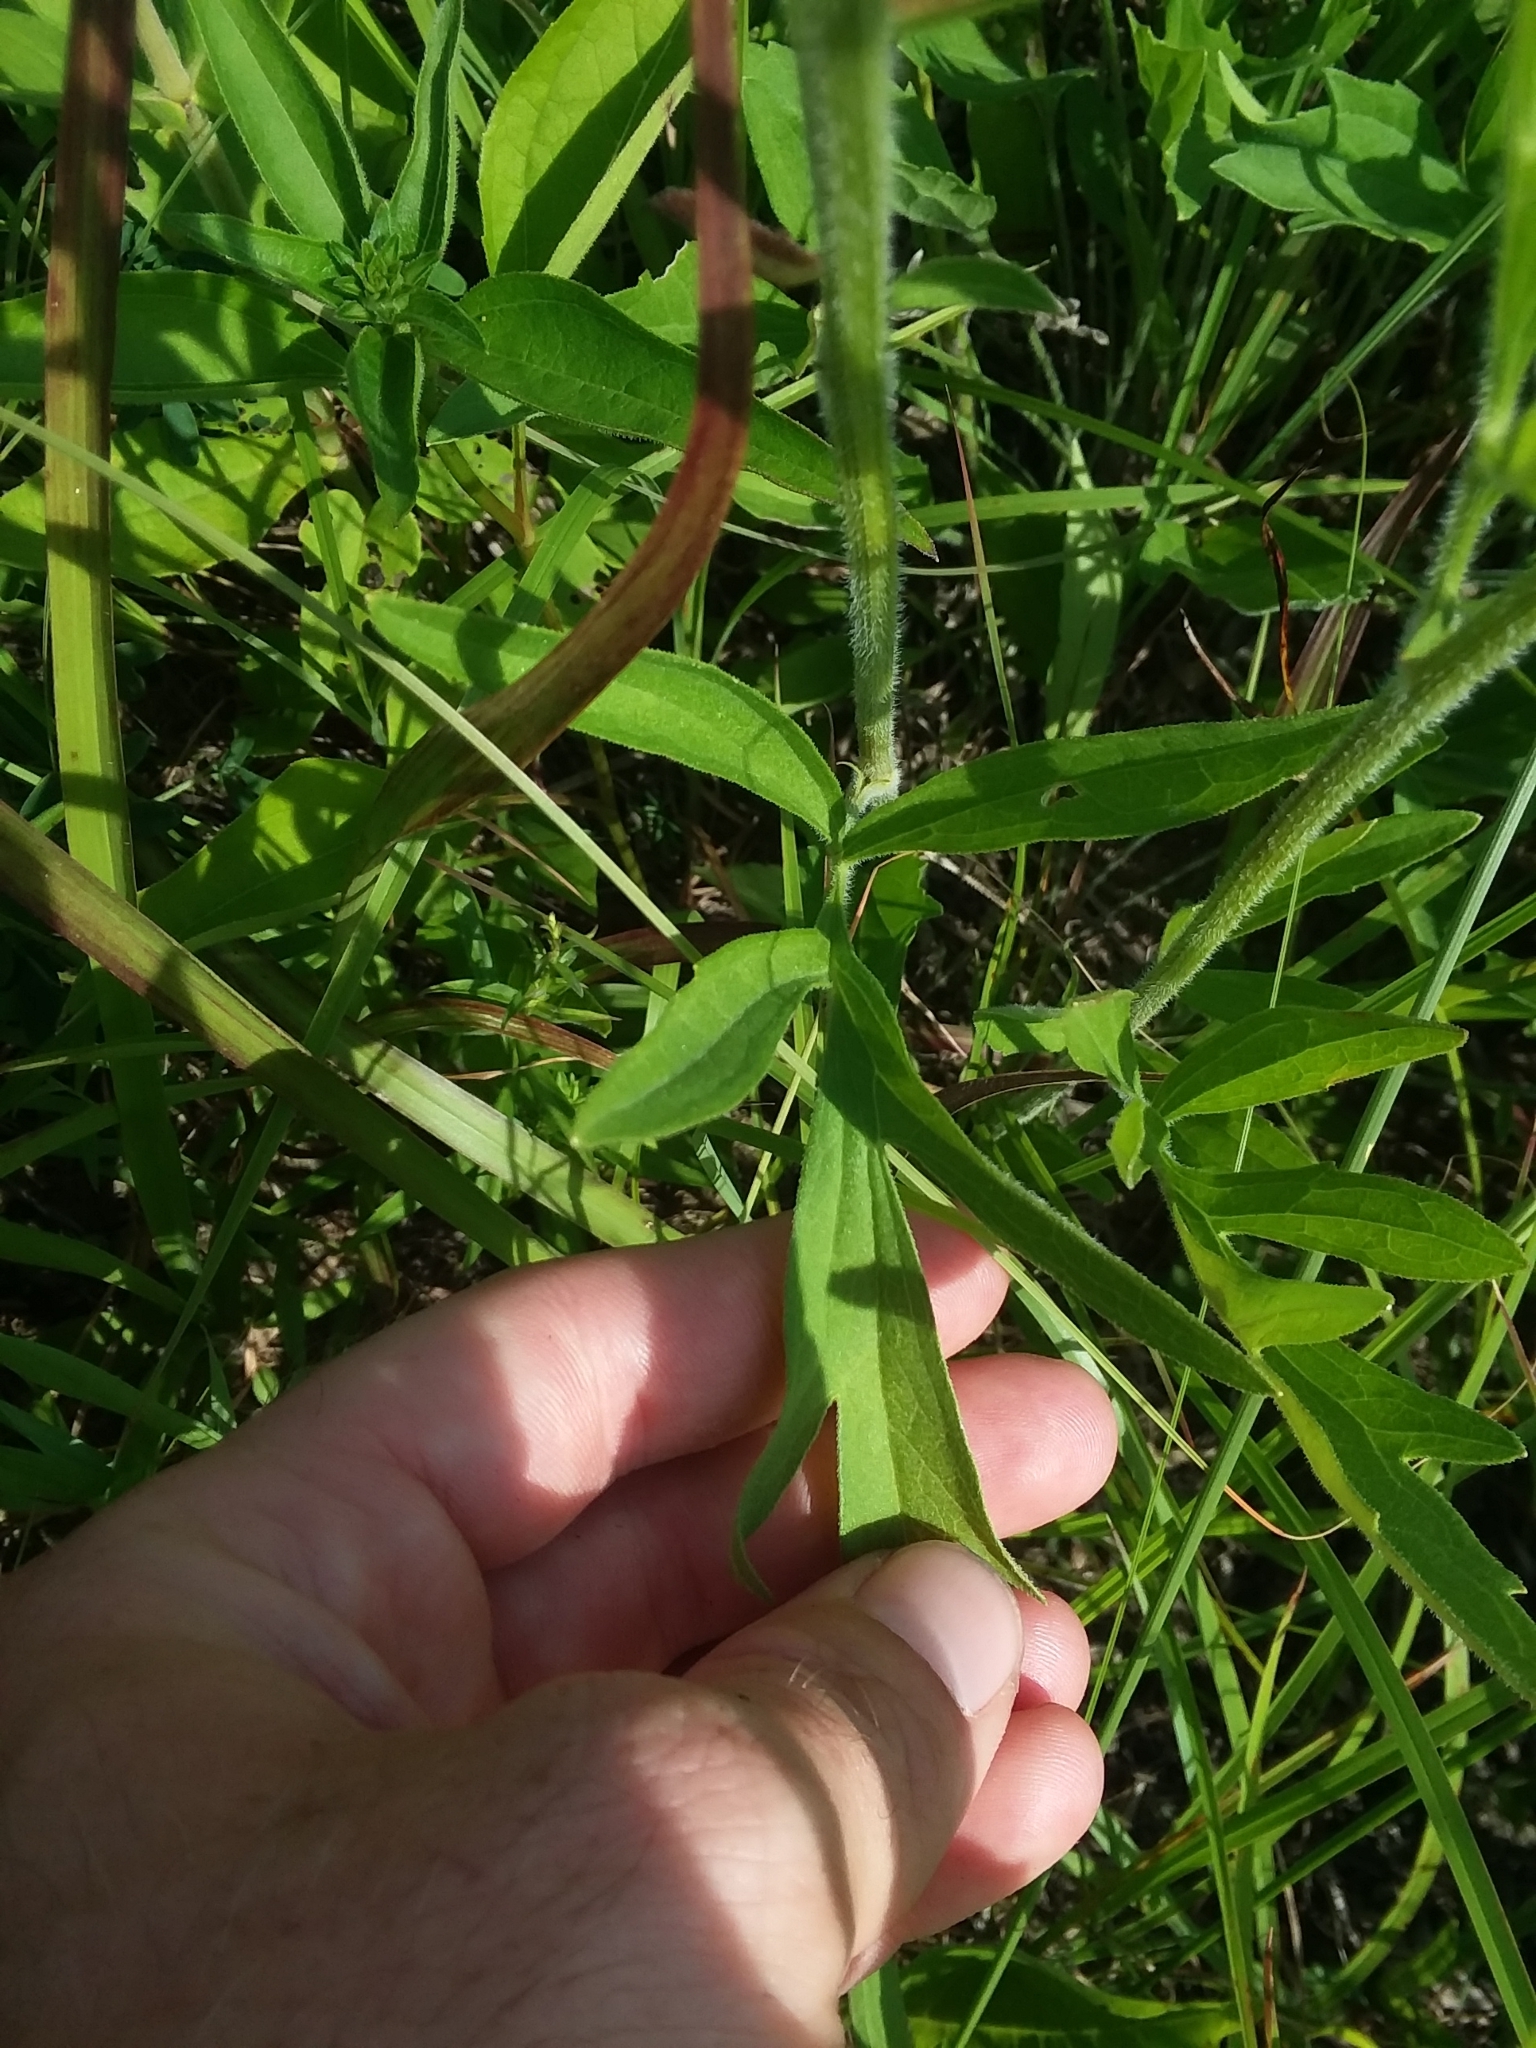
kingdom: Plantae
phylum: Tracheophyta
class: Magnoliopsida
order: Asterales
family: Asteraceae
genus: Ratibida
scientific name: Ratibida pinnata
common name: Drooping prairie-coneflower
